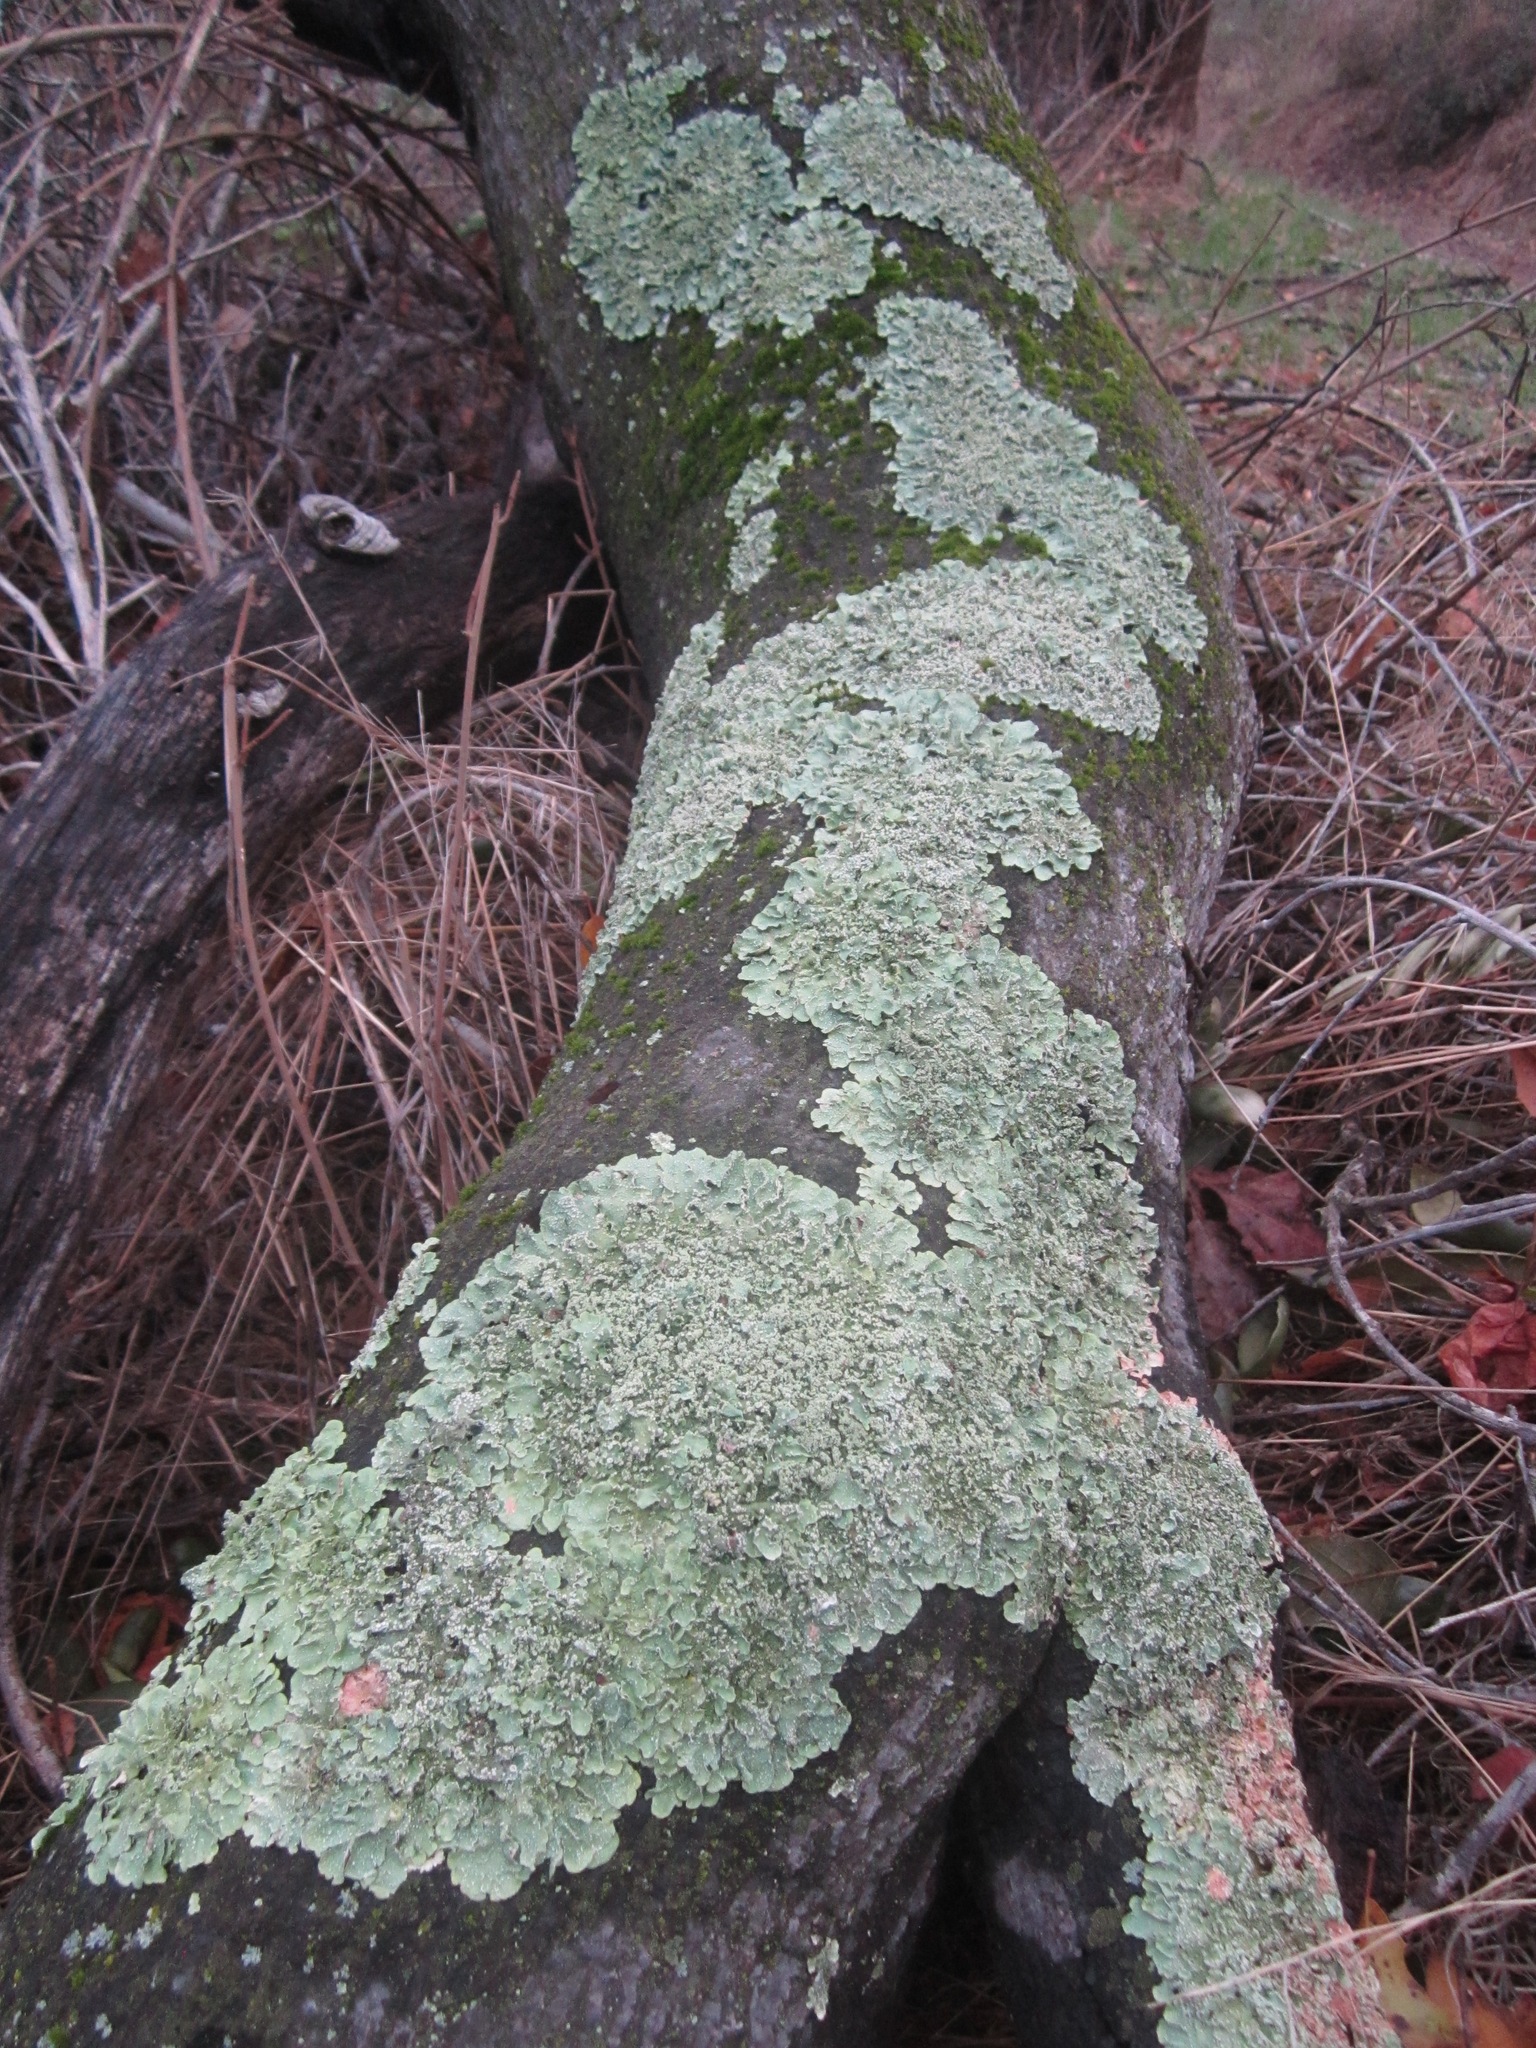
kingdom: Fungi
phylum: Ascomycota
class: Lecanoromycetes
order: Lecanorales
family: Parmeliaceae
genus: Flavopunctelia
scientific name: Flavopunctelia flaventior
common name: Speckled greenshield
